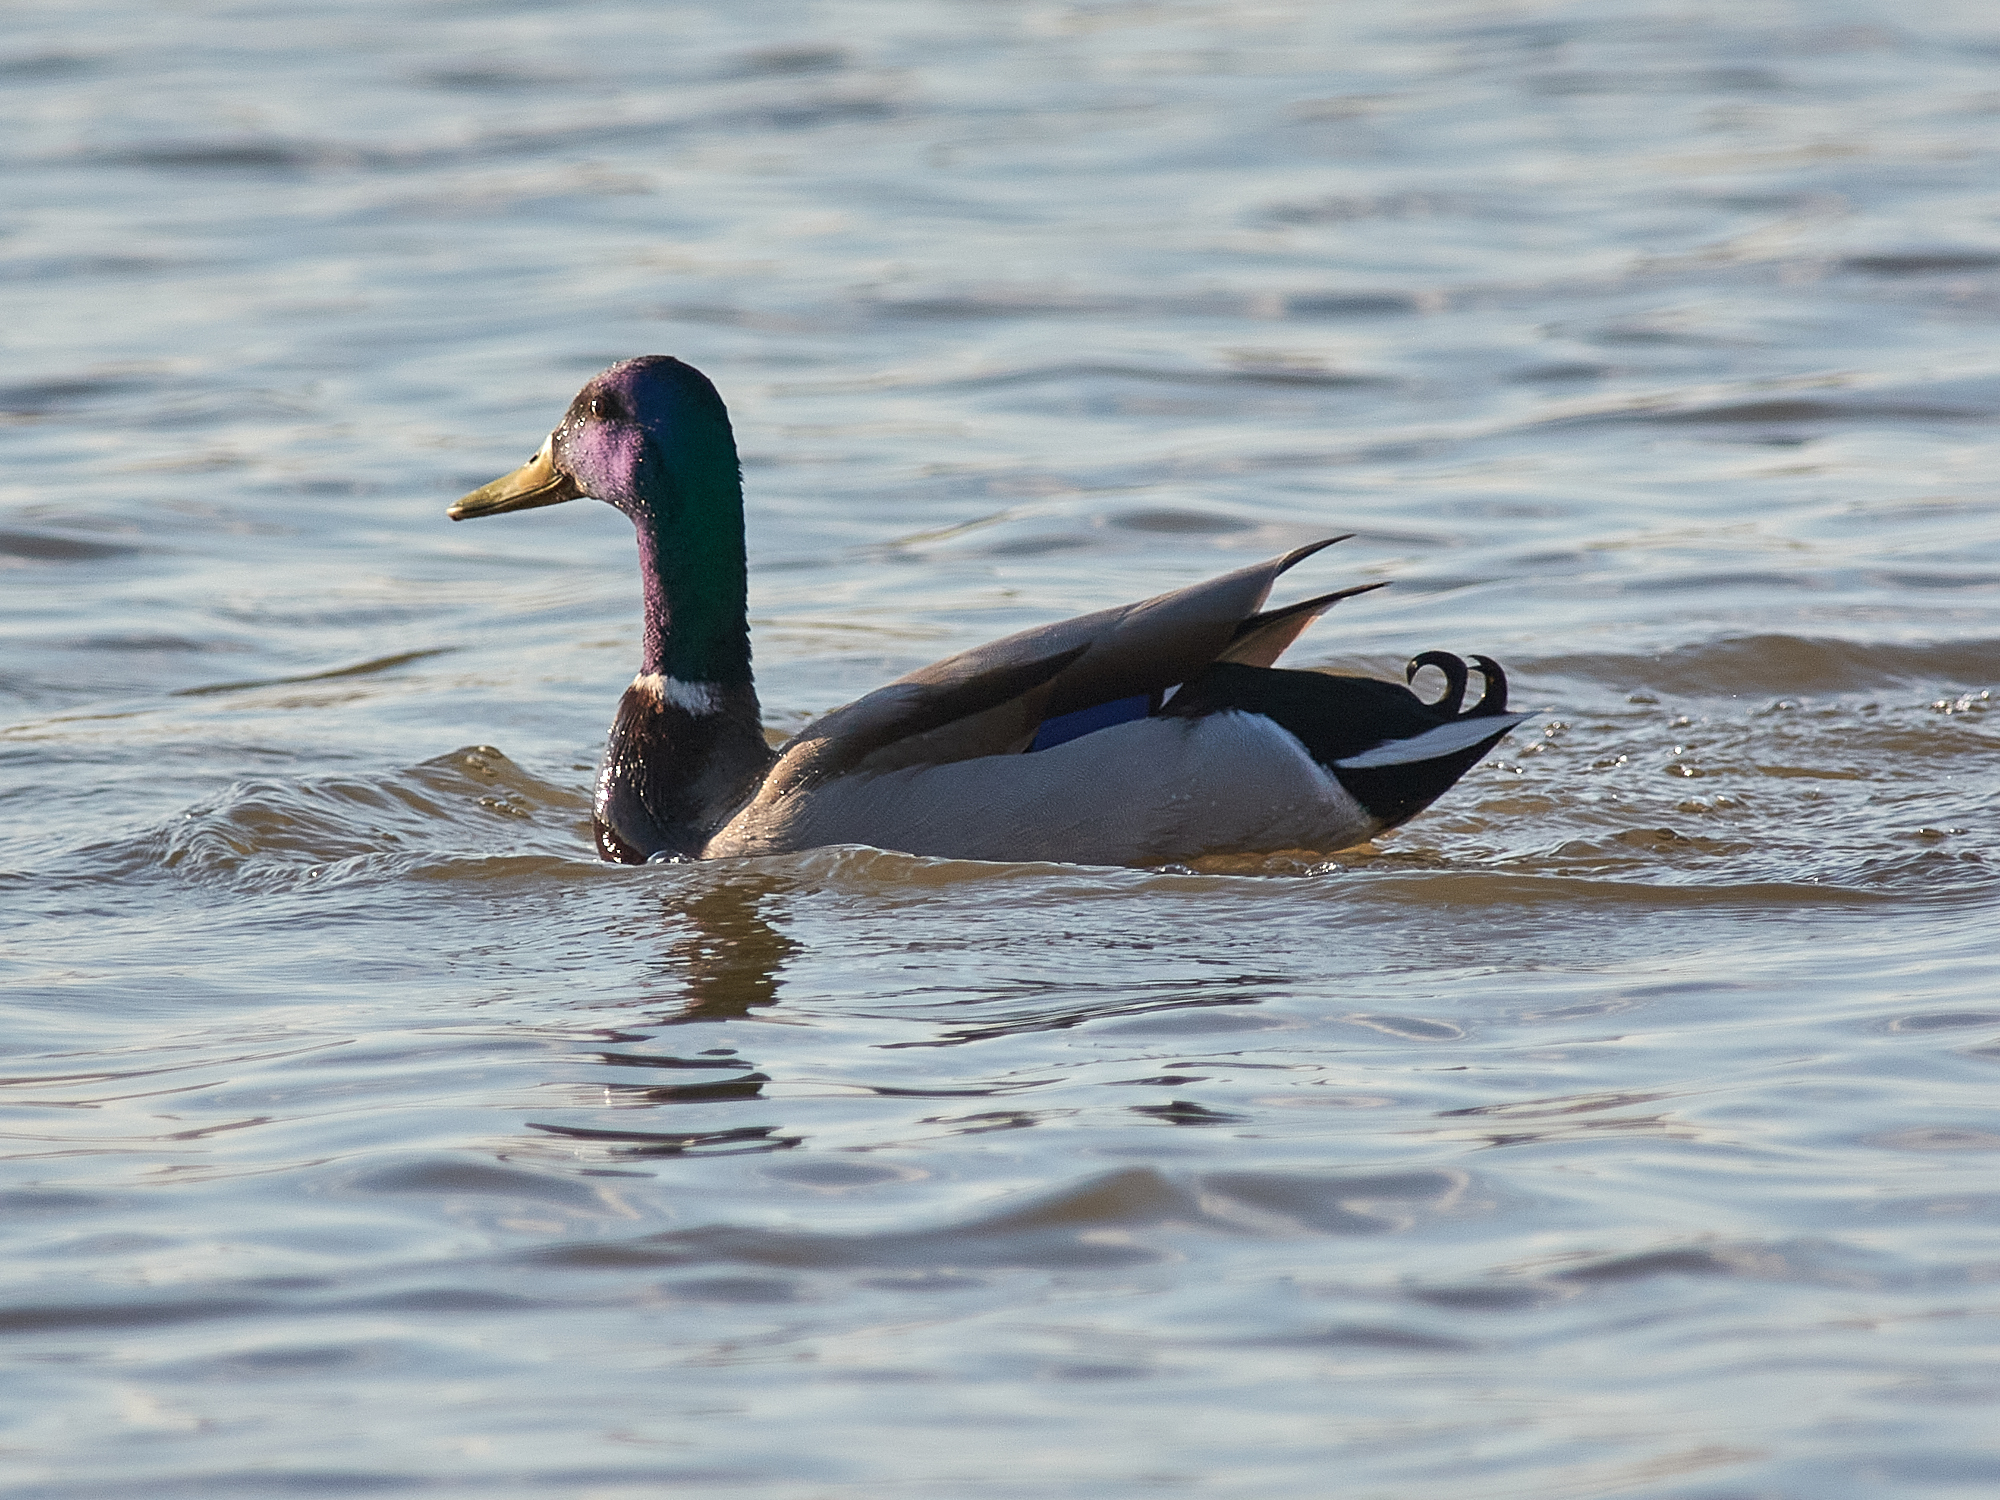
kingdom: Animalia
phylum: Chordata
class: Aves
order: Anseriformes
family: Anatidae
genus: Anas
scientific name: Anas platyrhynchos
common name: Mallard
